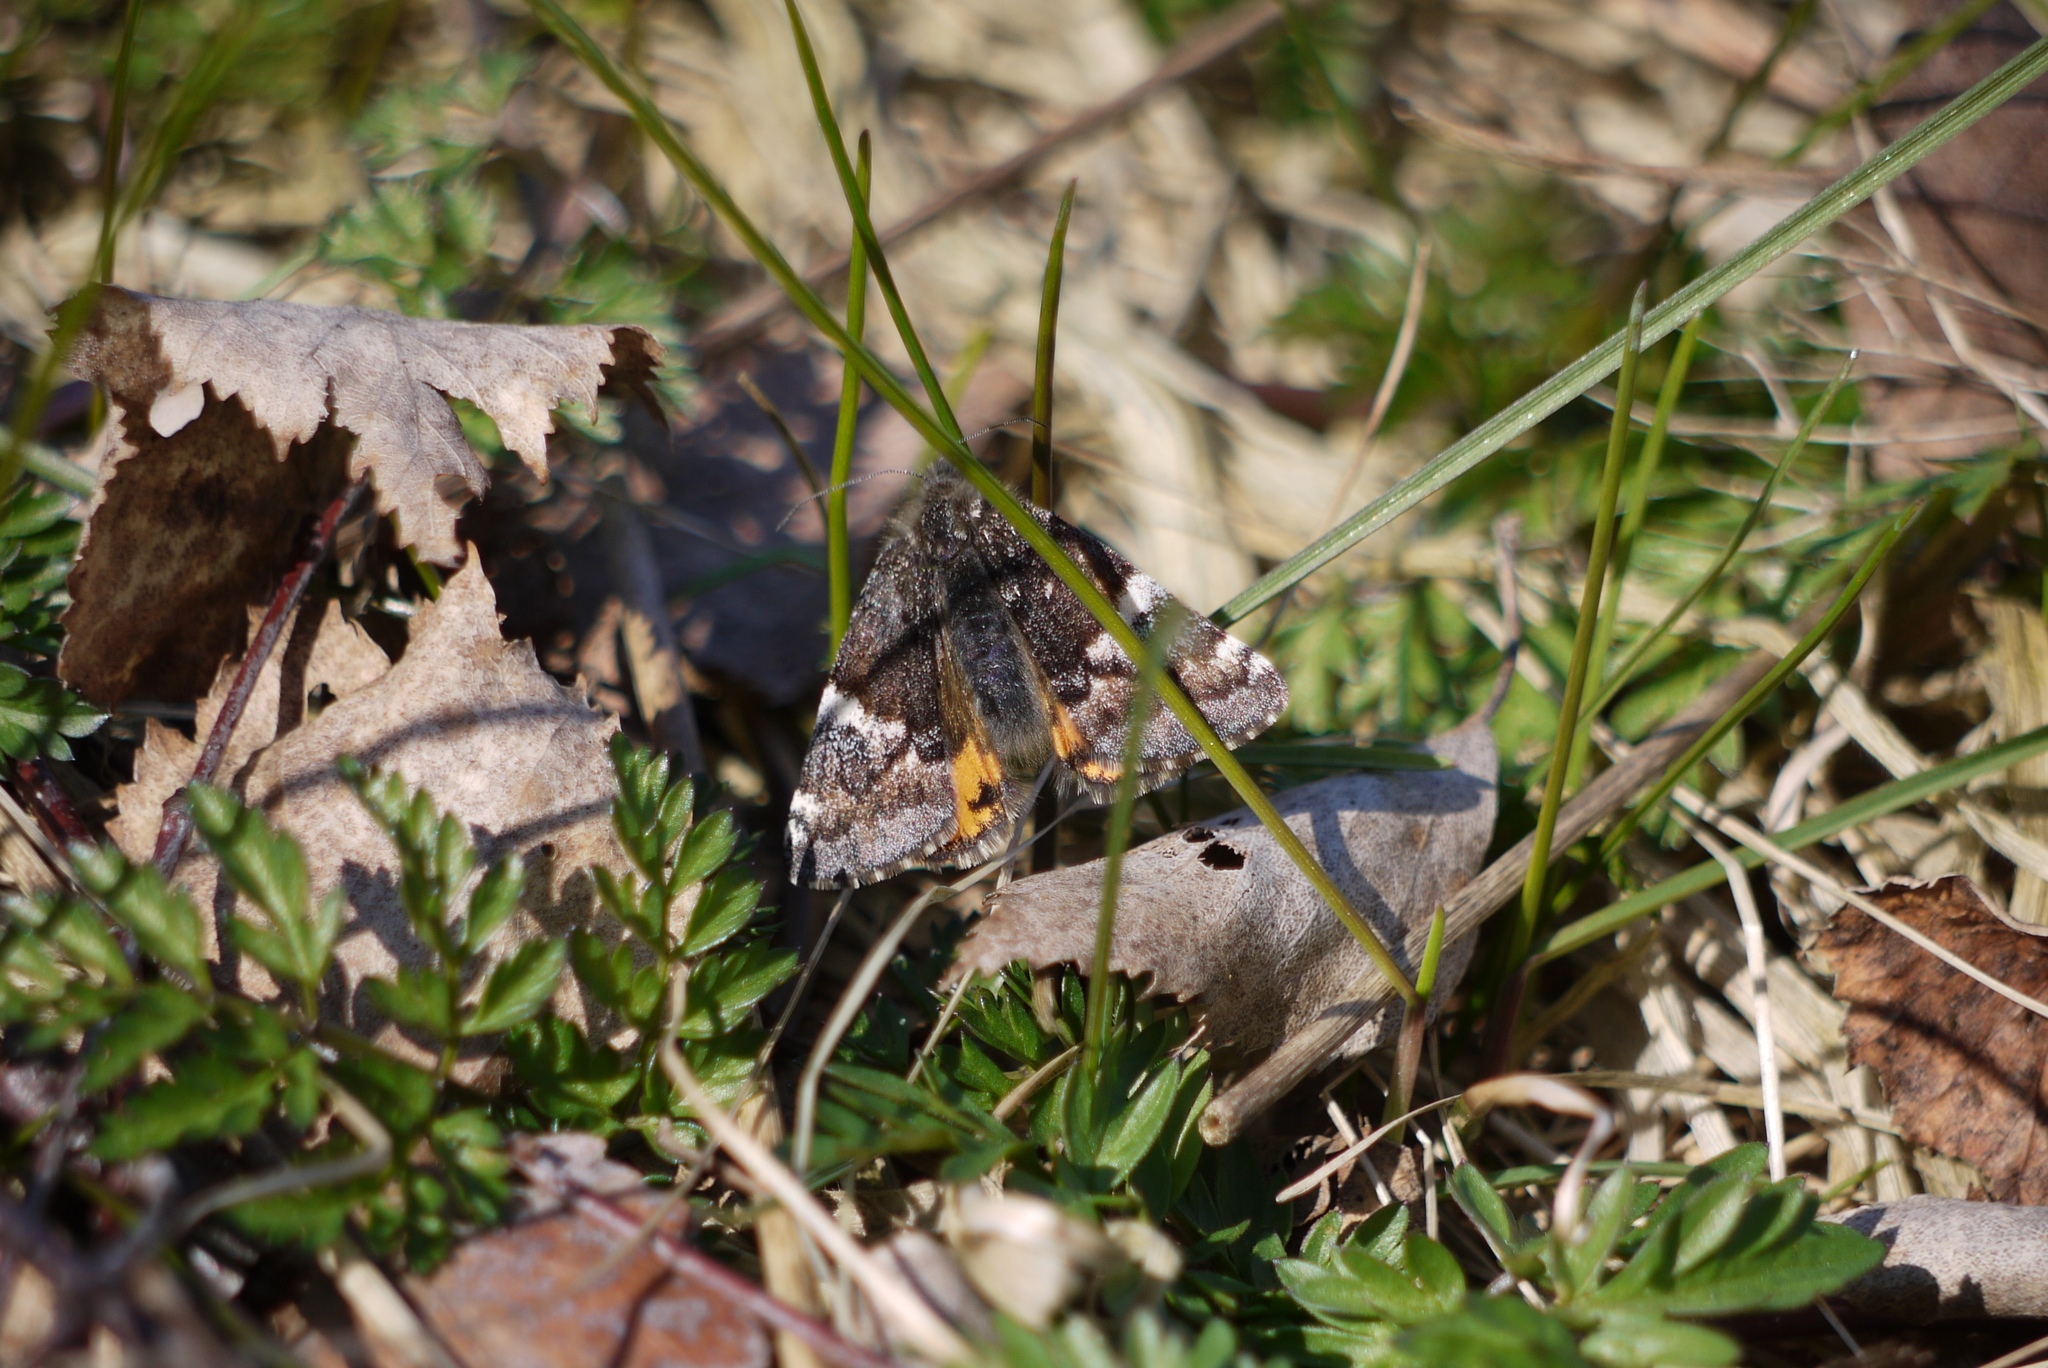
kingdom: Animalia
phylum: Arthropoda
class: Insecta
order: Lepidoptera
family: Geometridae
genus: Archiearis
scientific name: Archiearis parthenias
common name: Orange underwing
